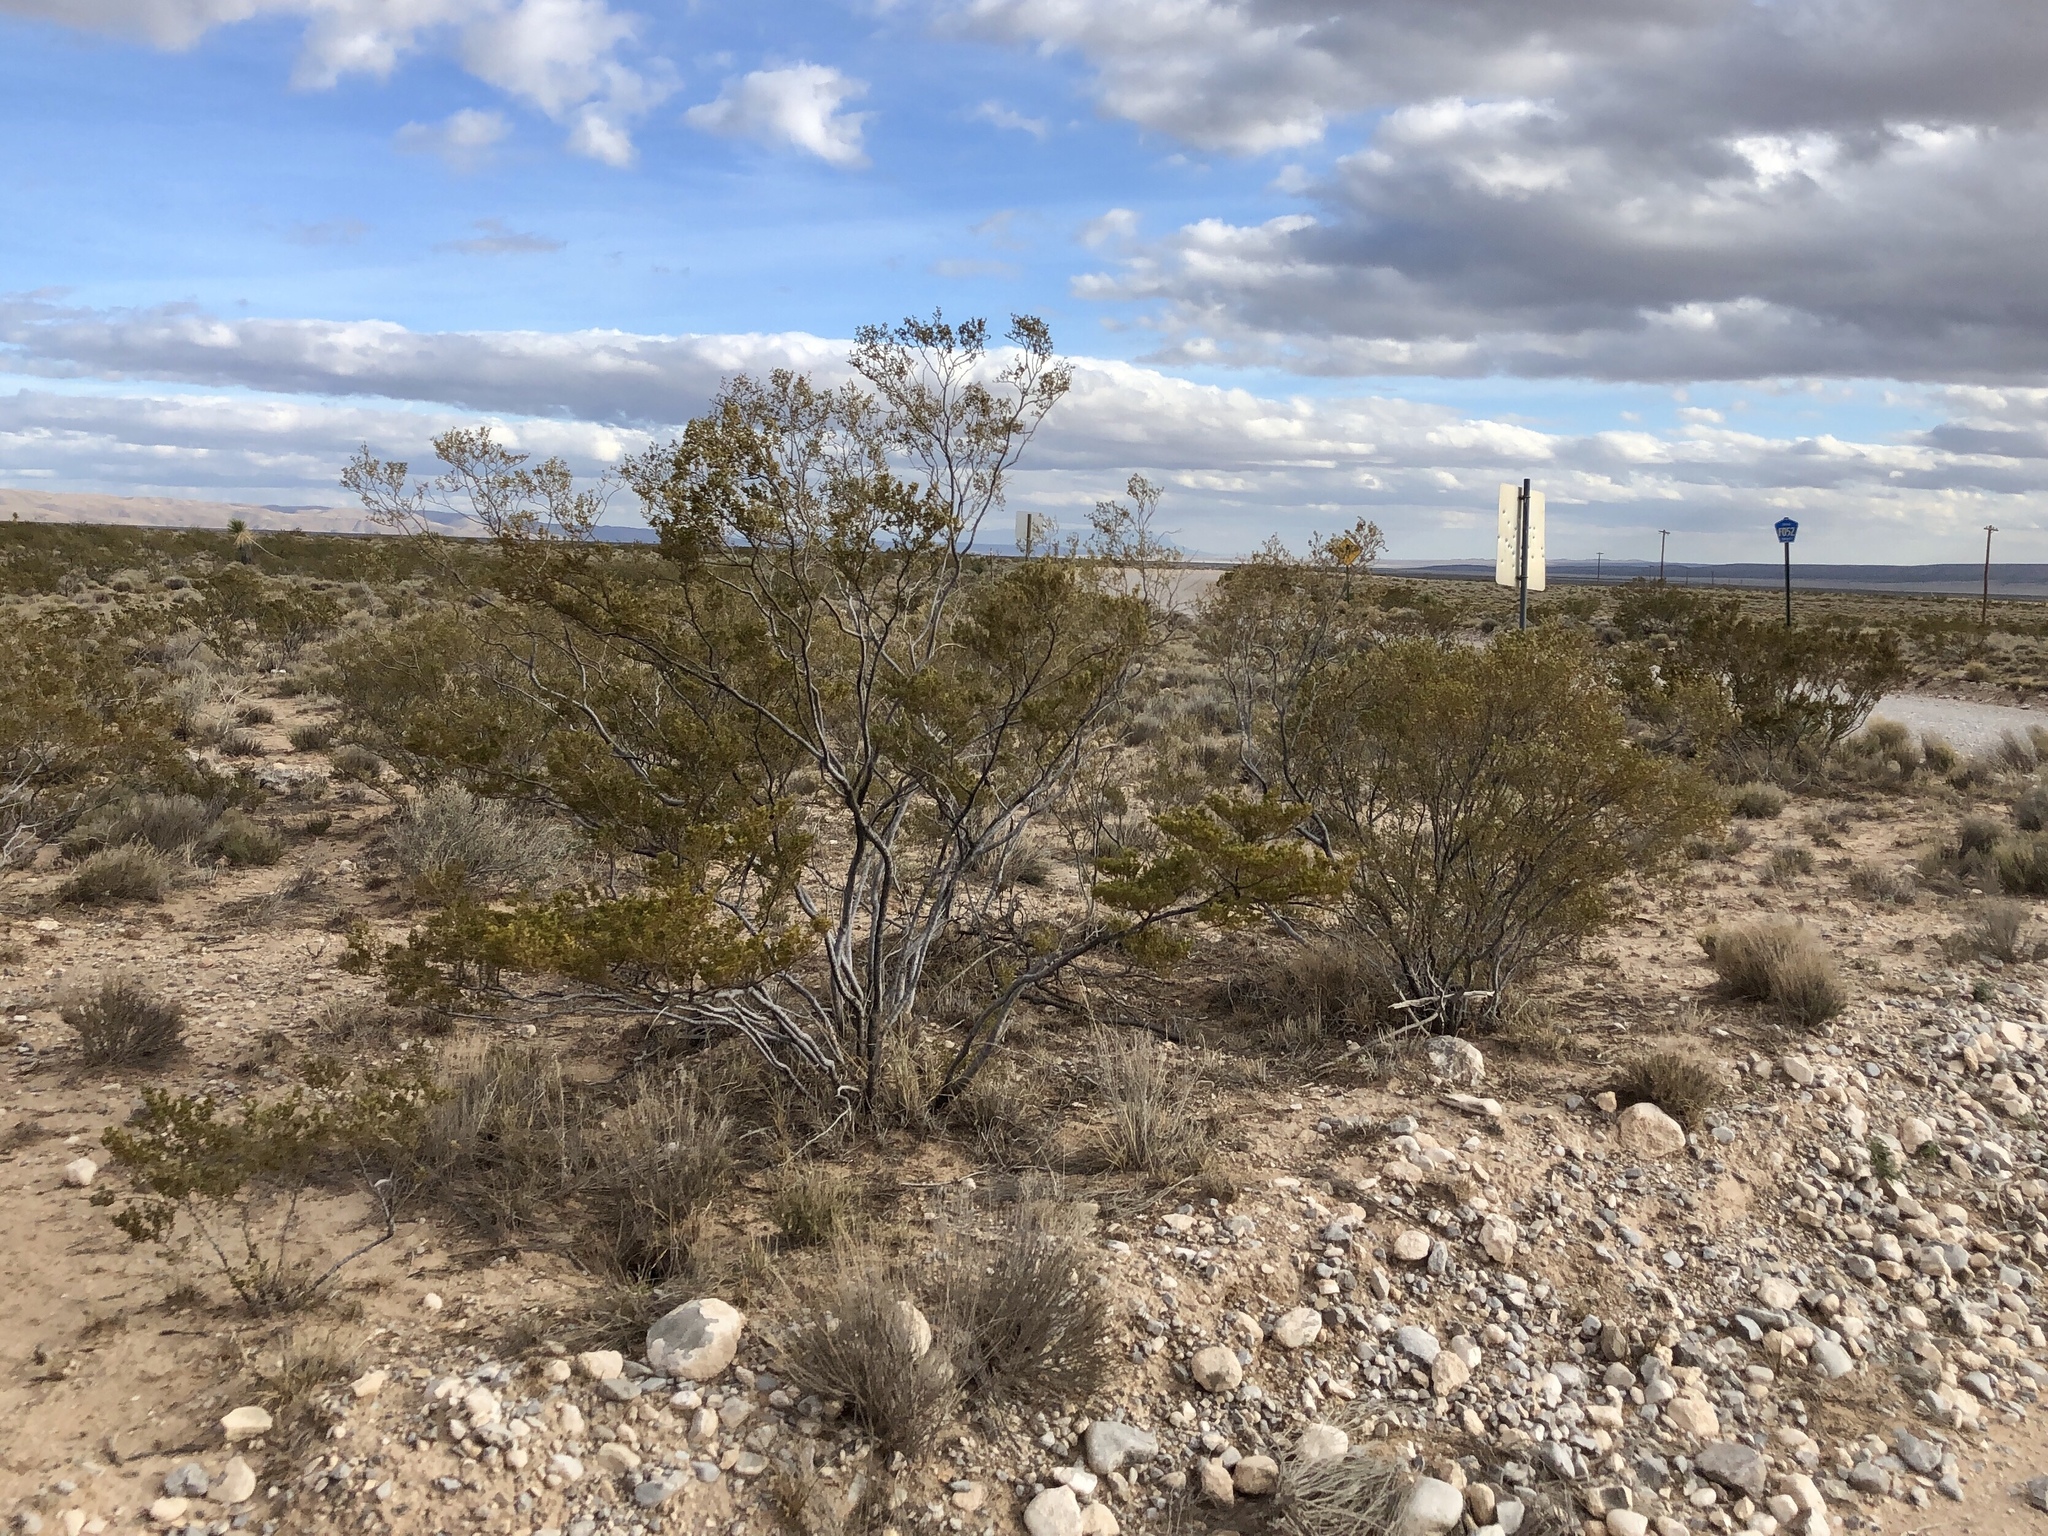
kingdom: Plantae
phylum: Tracheophyta
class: Magnoliopsida
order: Zygophyllales
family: Zygophyllaceae
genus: Larrea
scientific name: Larrea tridentata
